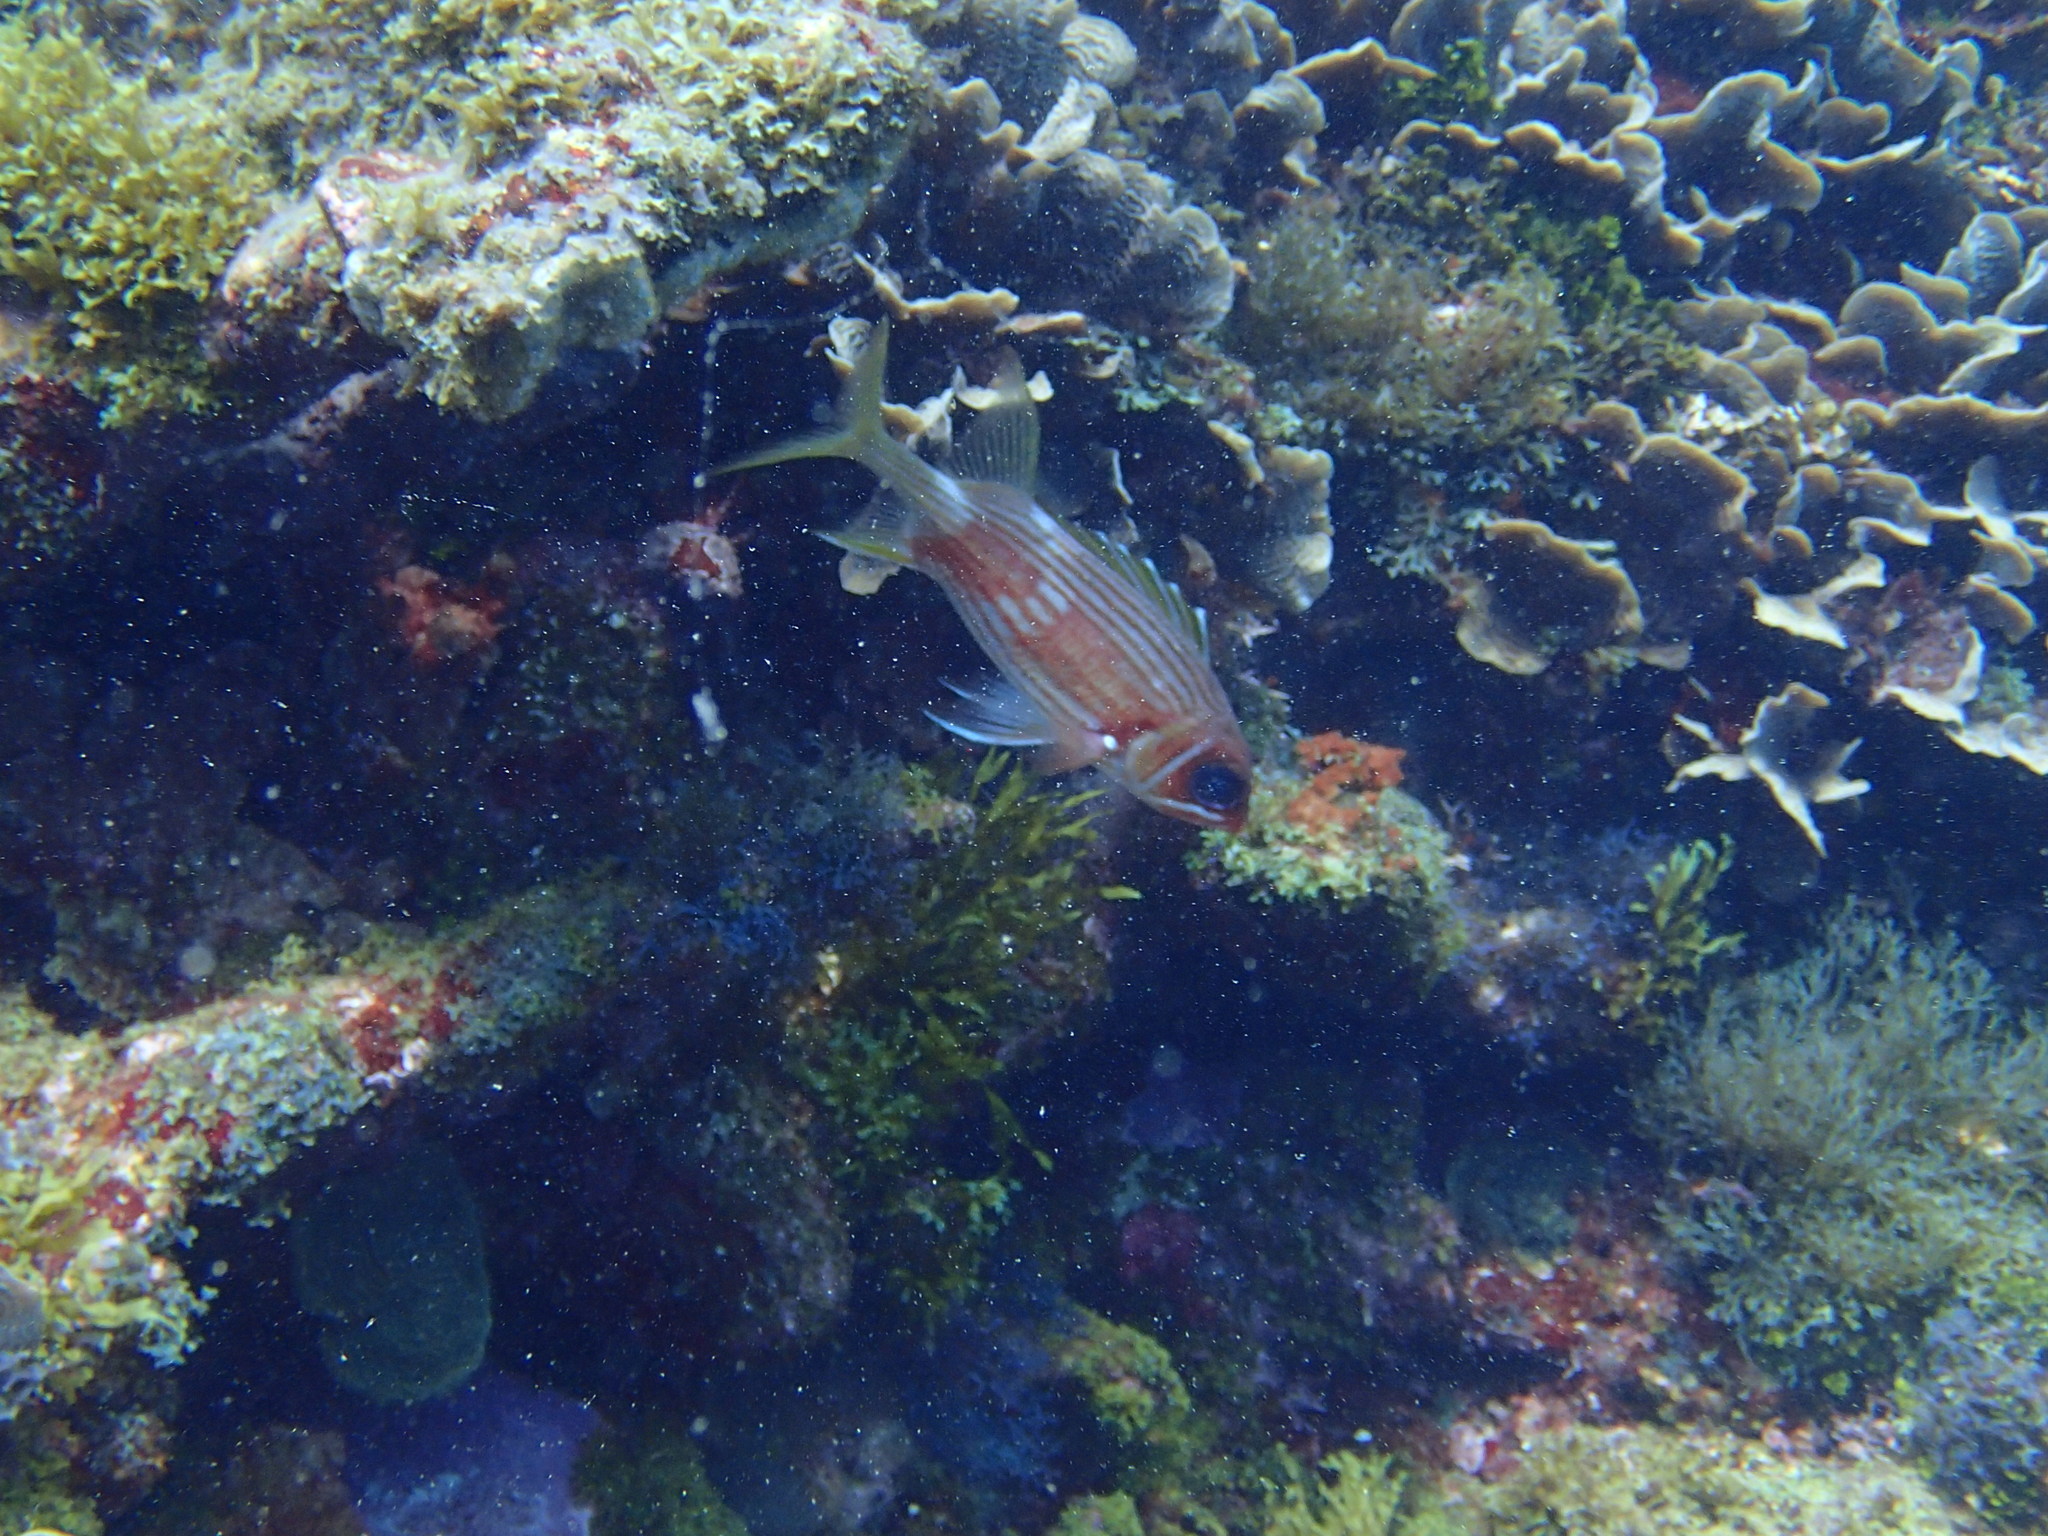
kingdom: Animalia
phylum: Chordata
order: Beryciformes
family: Holocentridae
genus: Holocentrus
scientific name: Holocentrus rufus
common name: Longspine squirrelfish
